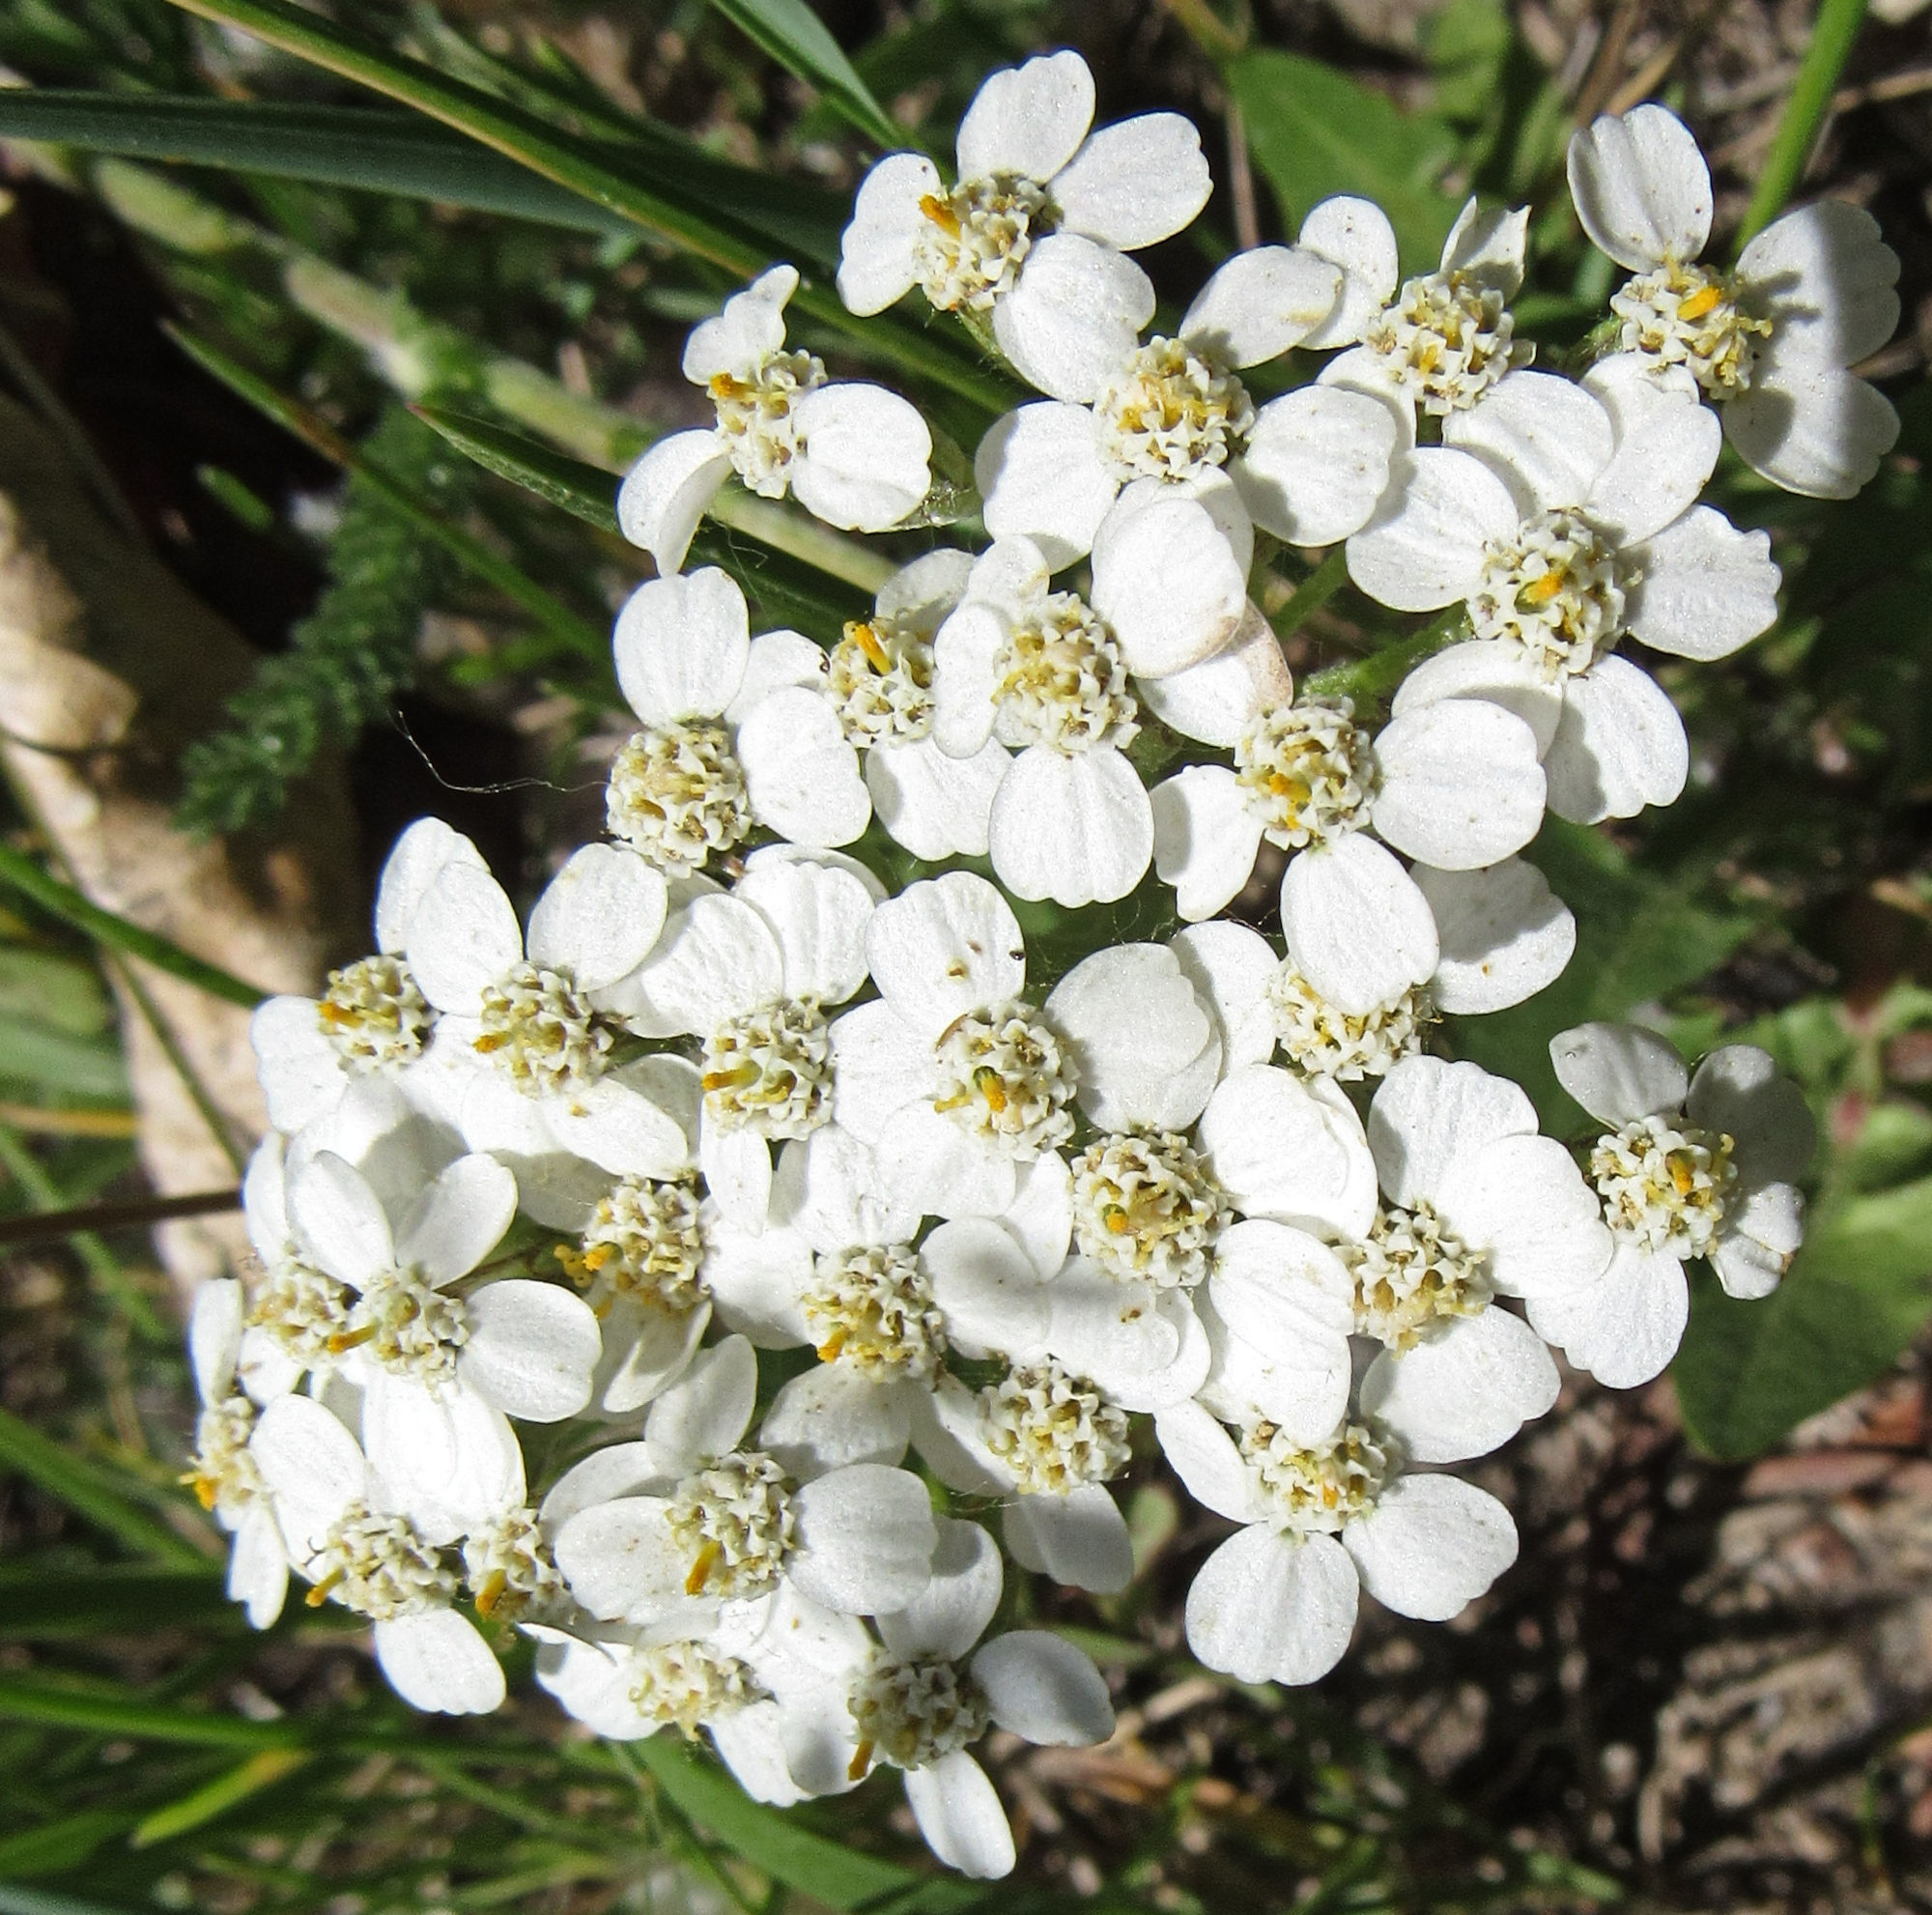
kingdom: Plantae
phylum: Tracheophyta
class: Magnoliopsida
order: Asterales
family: Asteraceae
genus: Achillea
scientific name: Achillea millefolium
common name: Yarrow
